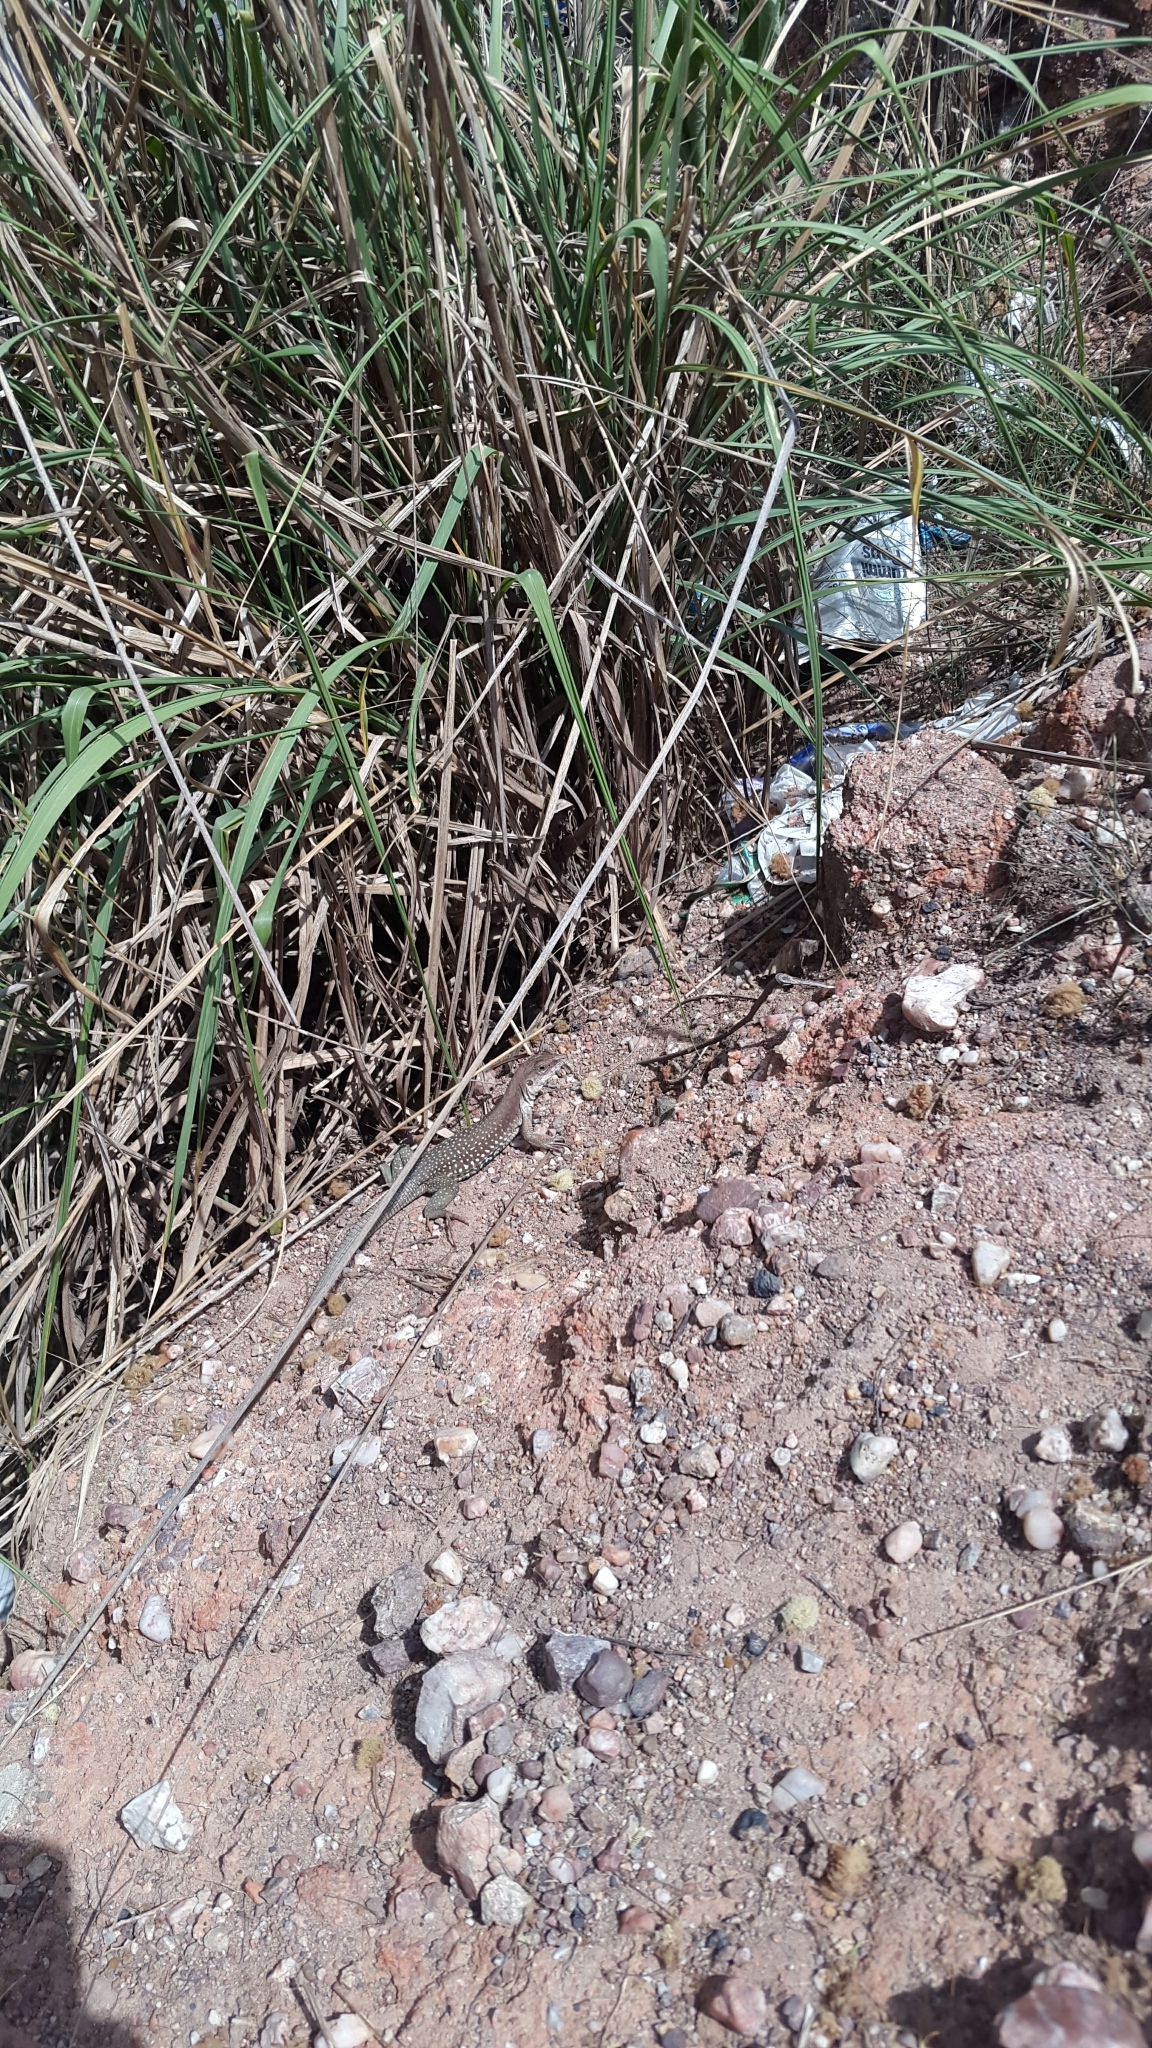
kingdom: Animalia
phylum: Chordata
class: Squamata
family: Teiidae
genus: Aspidoscelis
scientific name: Aspidoscelis motaguae
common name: Giant whiptail
